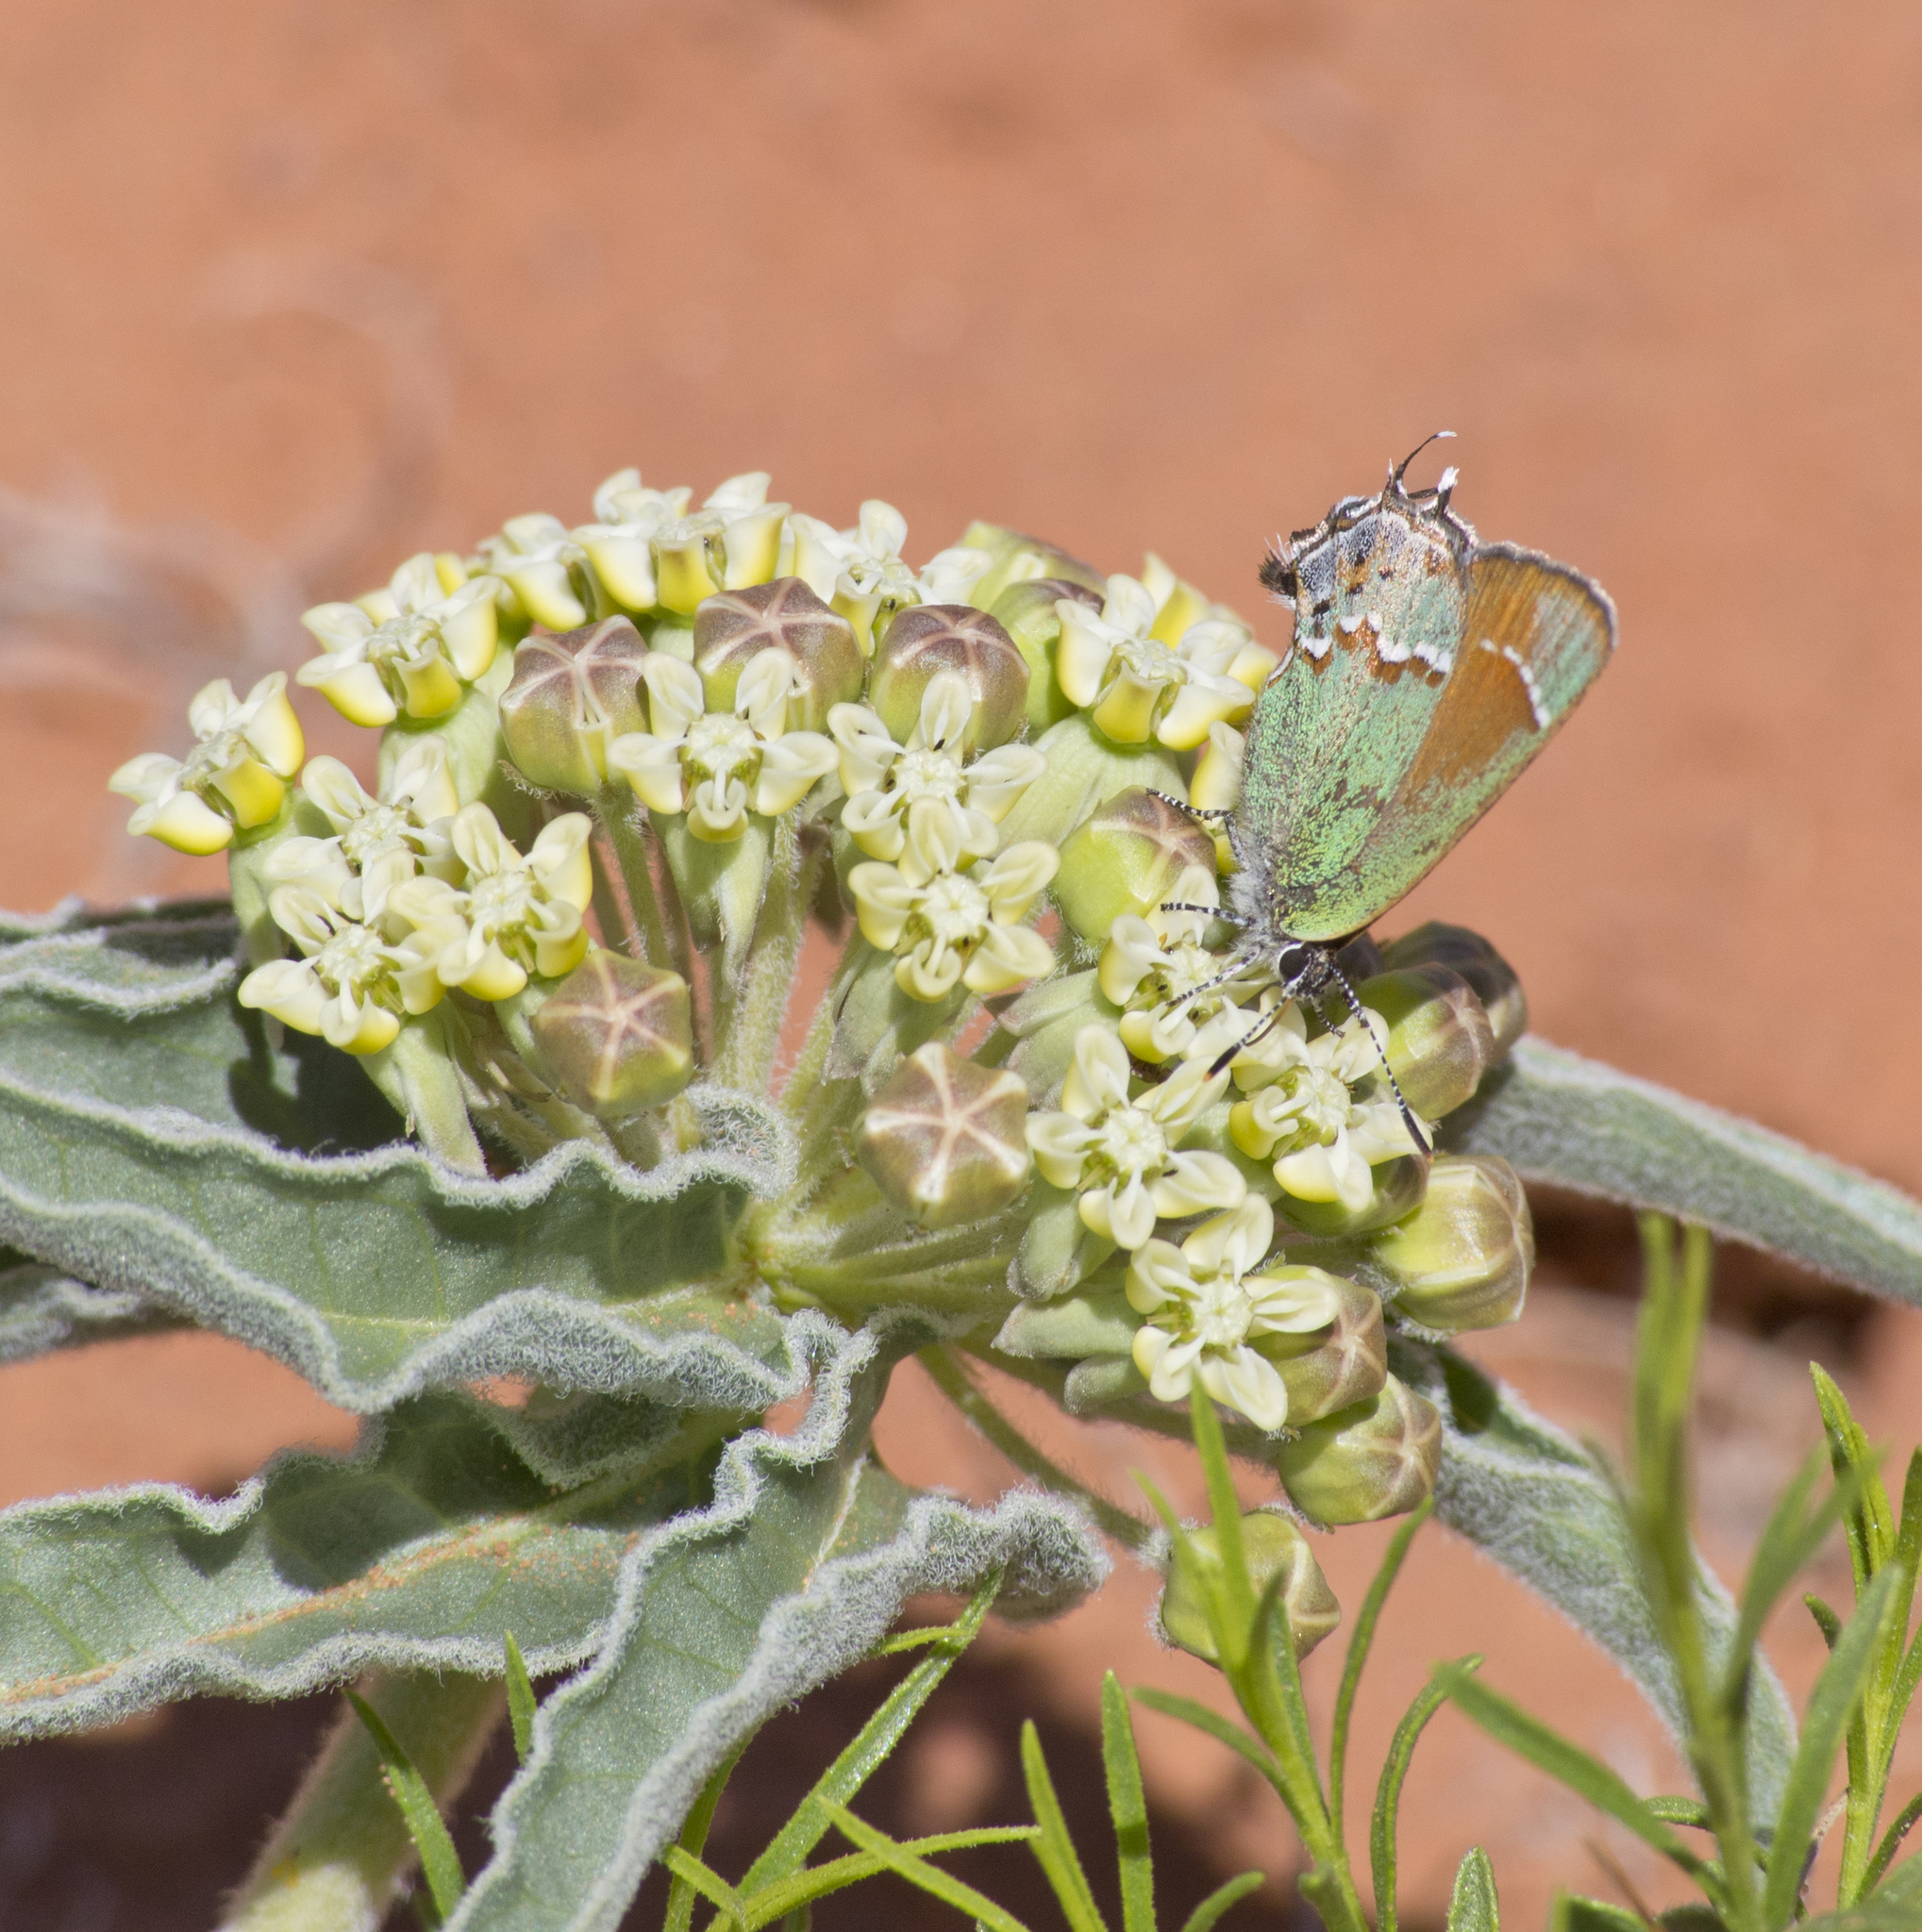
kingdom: Animalia
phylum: Arthropoda
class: Insecta
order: Lepidoptera
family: Lycaenidae
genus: Mitoura
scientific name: Mitoura siva
